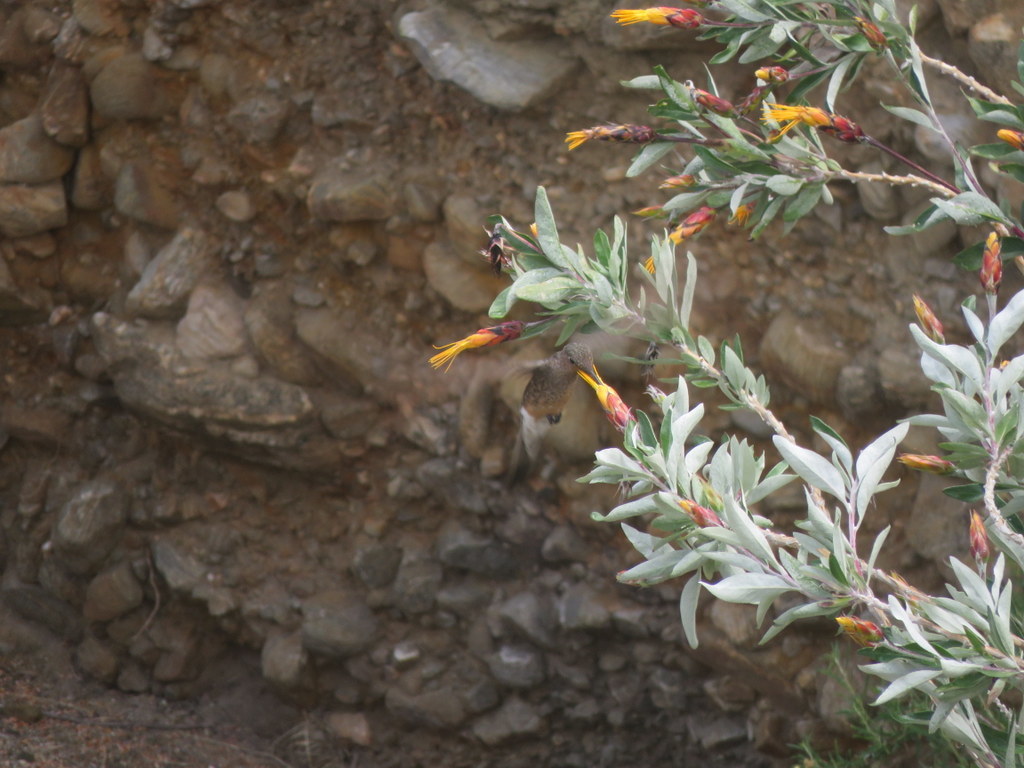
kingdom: Plantae
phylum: Tracheophyta
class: Magnoliopsida
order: Asterales
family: Asteraceae
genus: Mutisia
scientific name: Mutisia kurtzii
